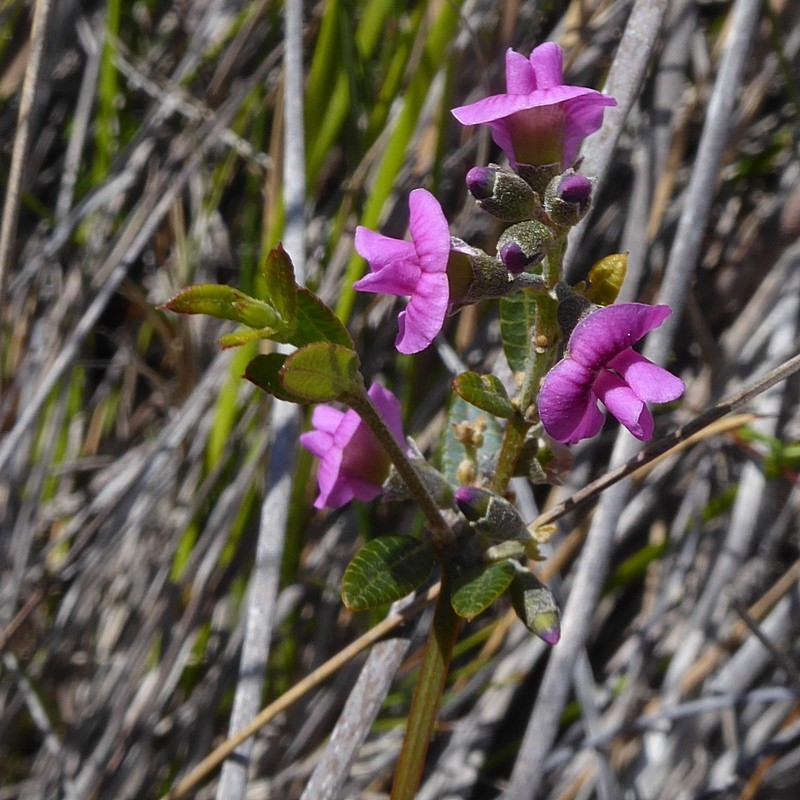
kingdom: Plantae
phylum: Tracheophyta
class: Magnoliopsida
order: Fabales
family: Fabaceae
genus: Mirbelia
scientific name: Mirbelia rubiifolia
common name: Heathy mirbelia
